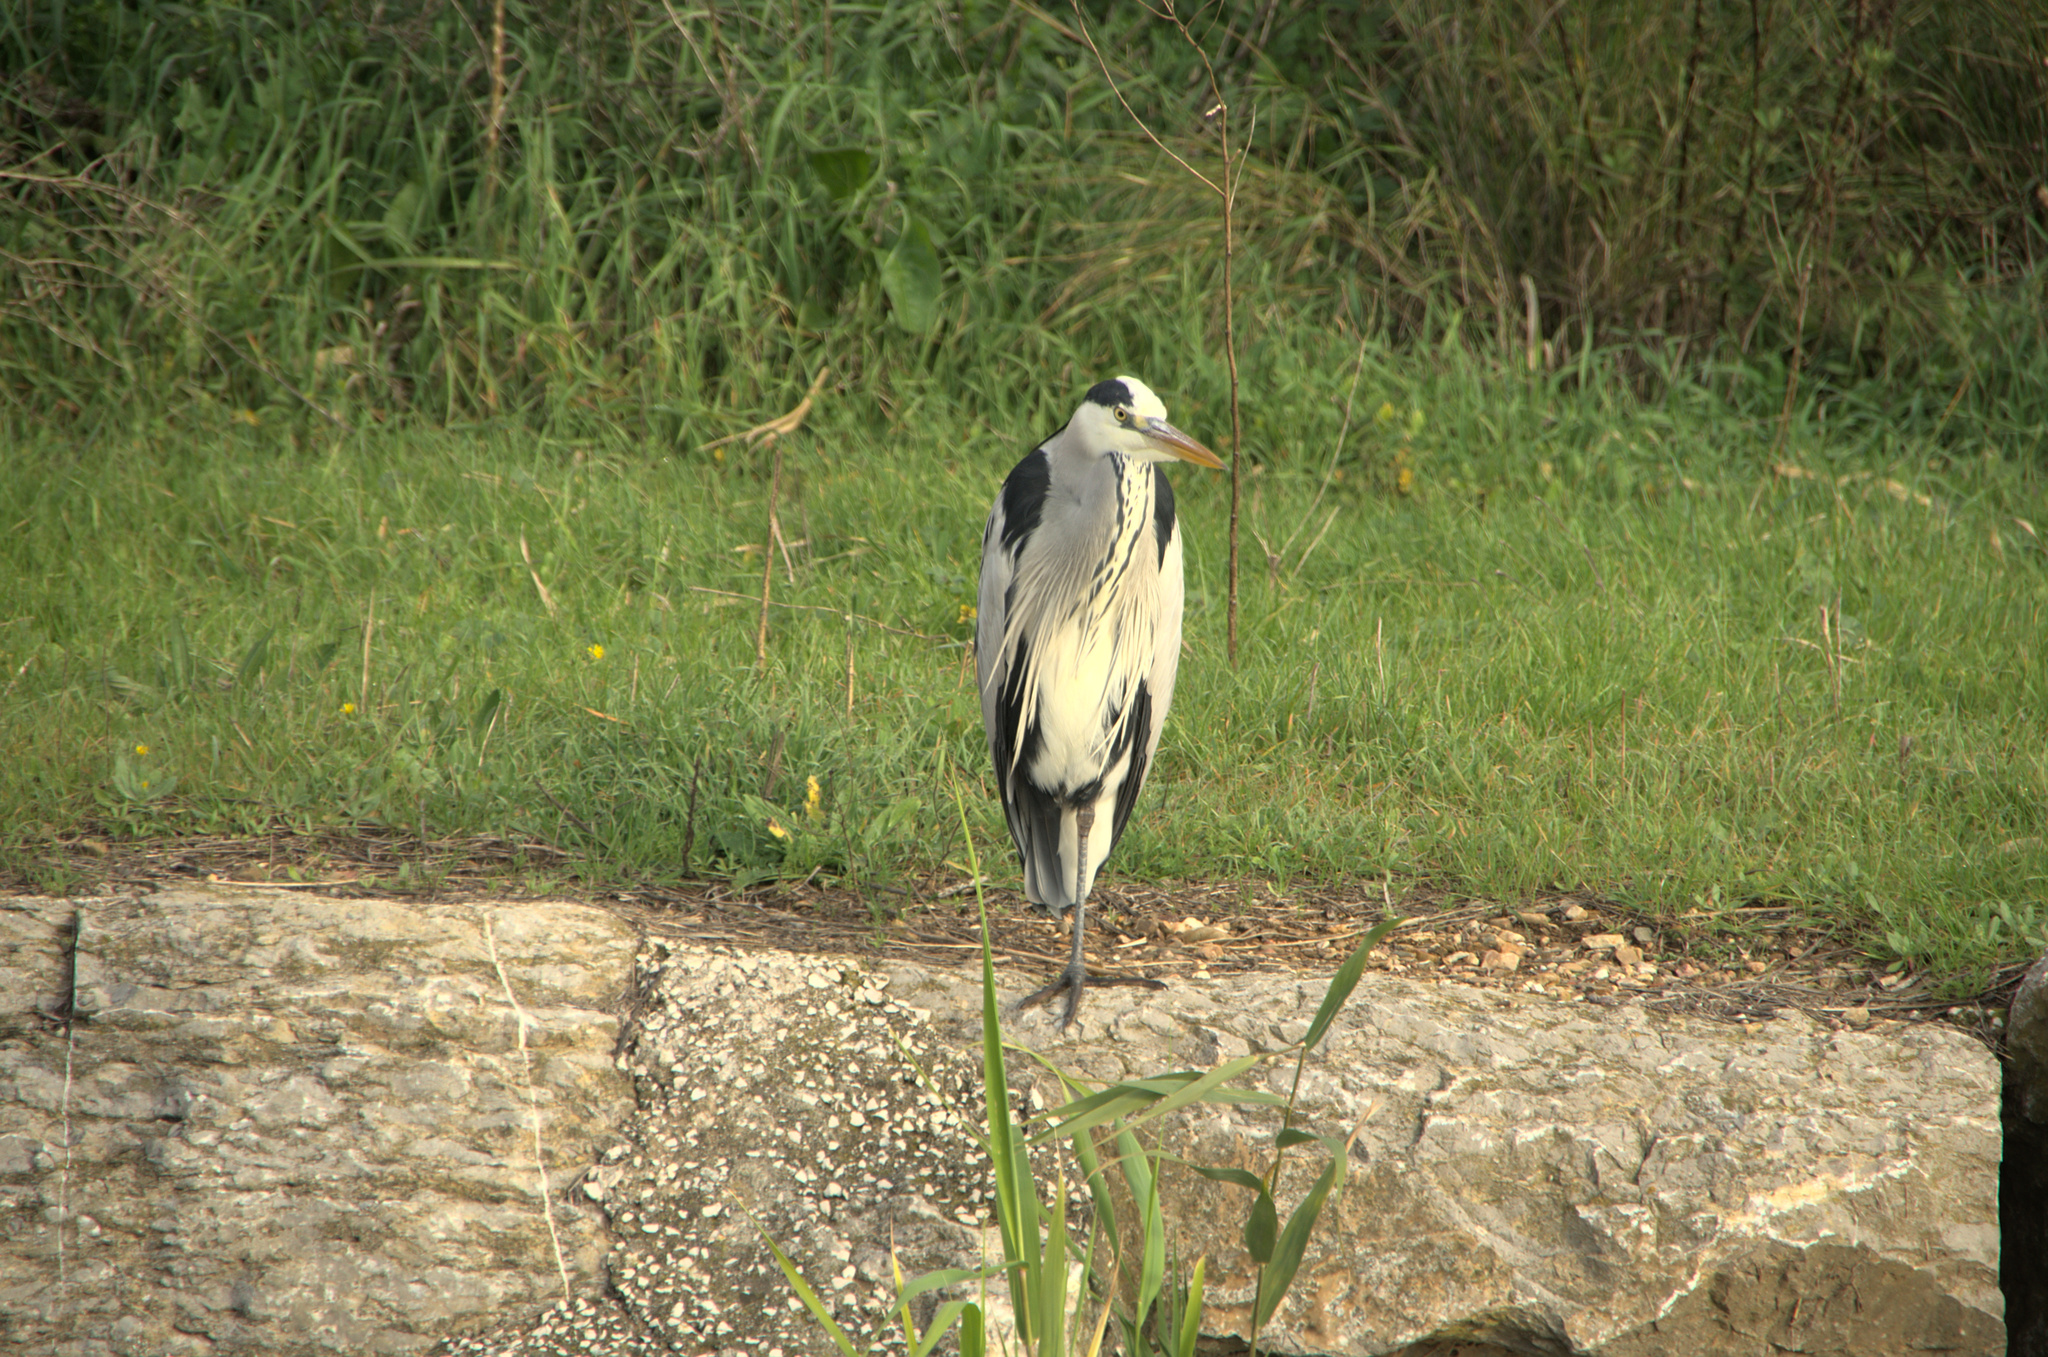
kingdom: Animalia
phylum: Chordata
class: Aves
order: Pelecaniformes
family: Ardeidae
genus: Ardea
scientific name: Ardea cinerea
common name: Grey heron
